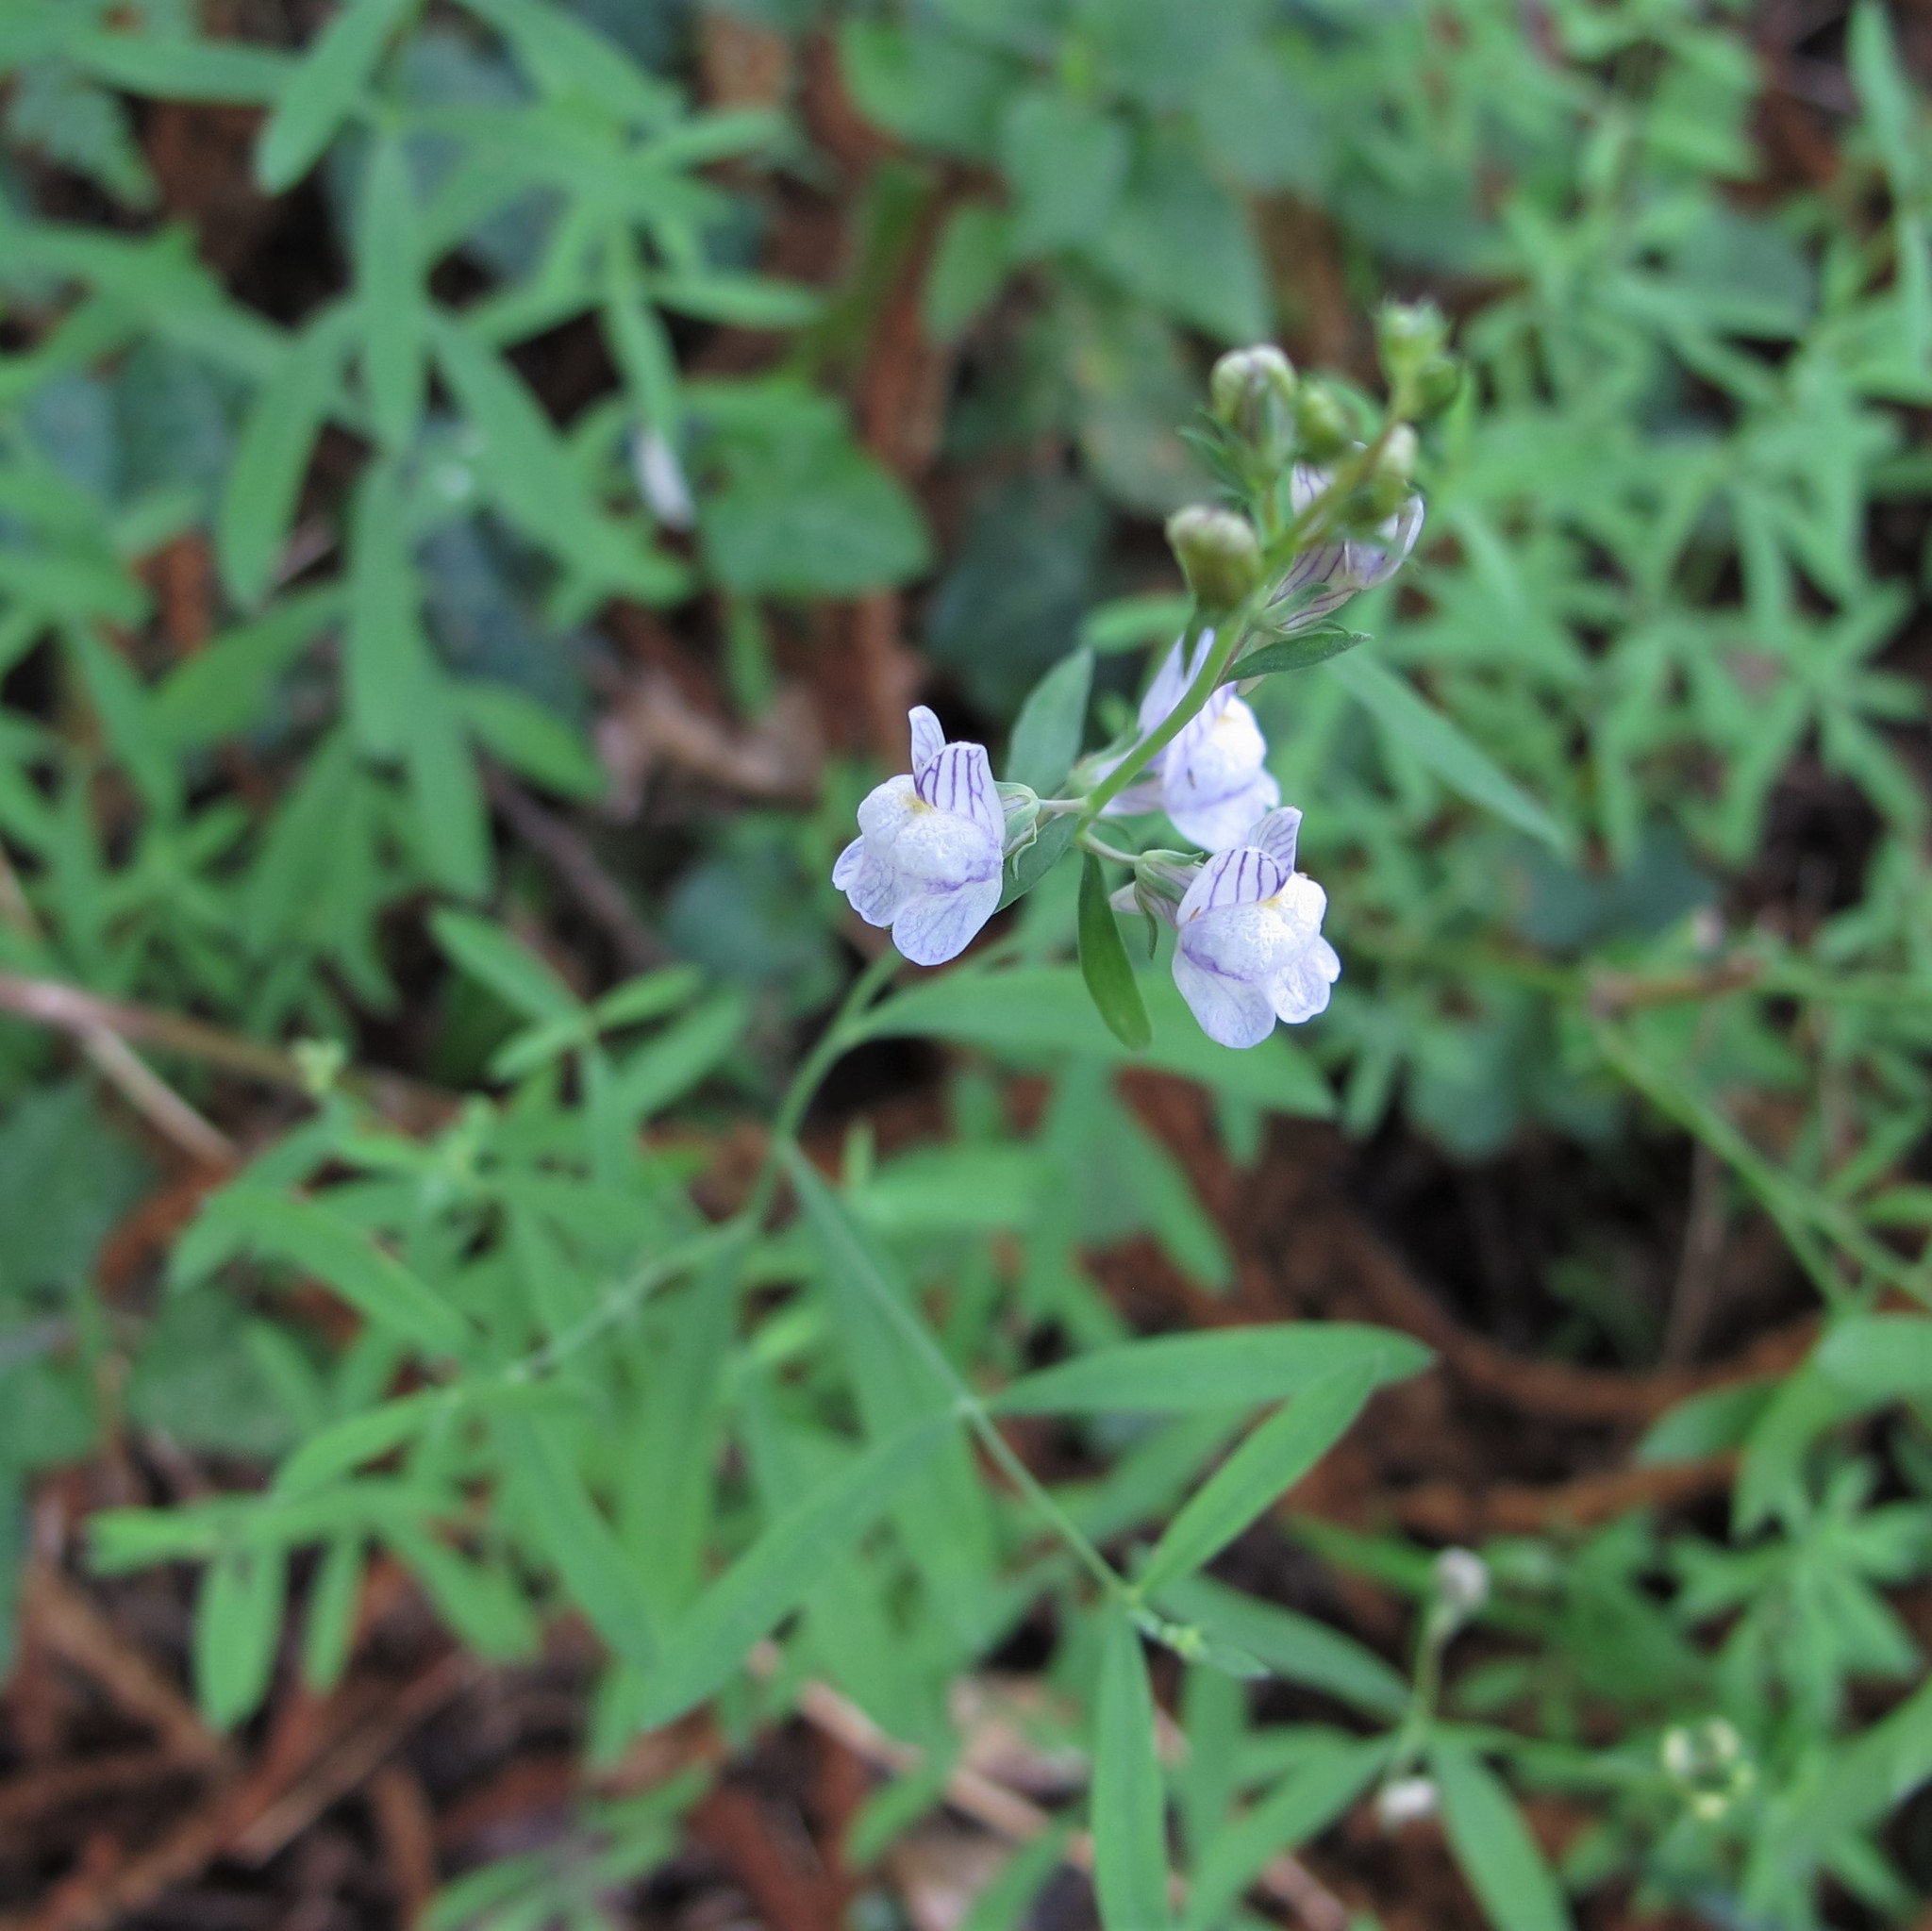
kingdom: Plantae
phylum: Tracheophyta
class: Magnoliopsida
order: Lamiales
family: Plantaginaceae
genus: Linaria
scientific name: Linaria repens
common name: Pale toadflax
